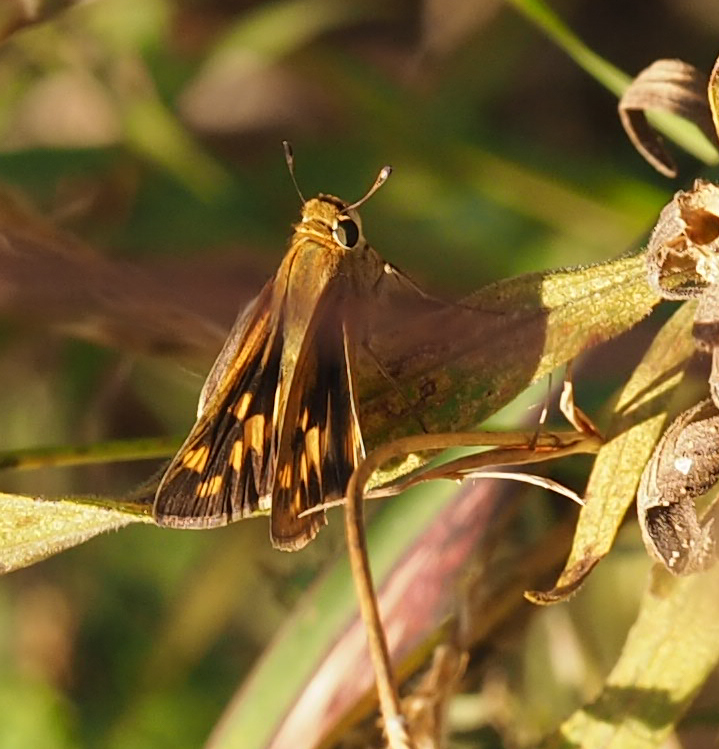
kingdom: Animalia
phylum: Arthropoda
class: Insecta
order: Lepidoptera
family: Hesperiidae
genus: Hylephila
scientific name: Hylephila phyleus
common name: Fiery skipper
